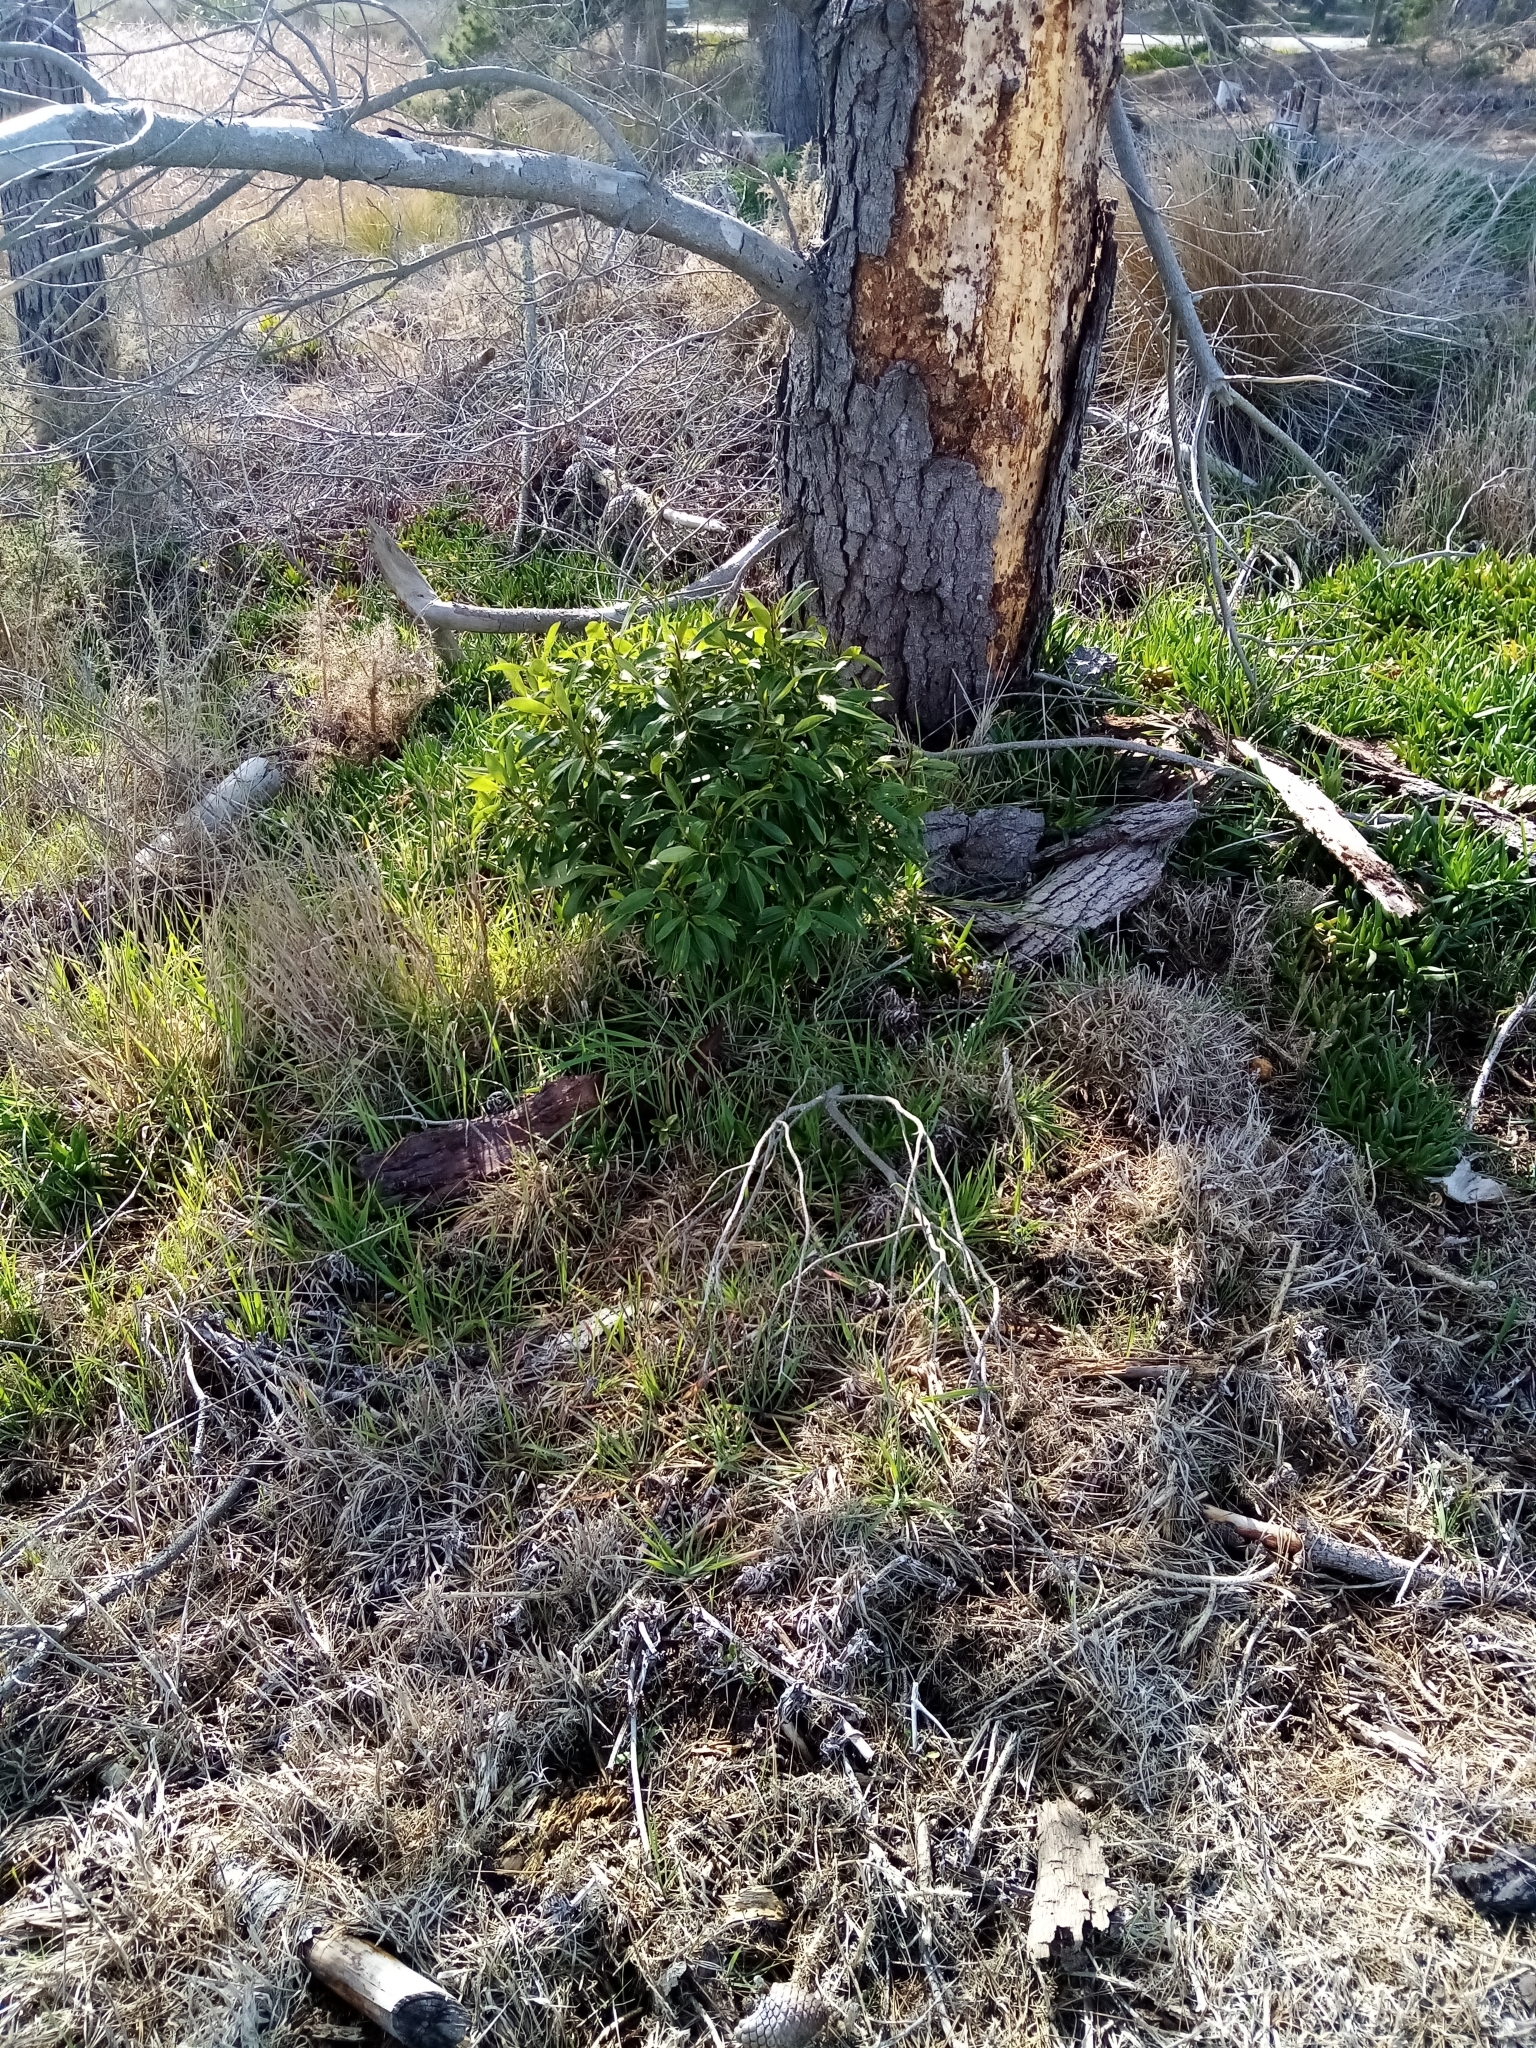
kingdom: Plantae
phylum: Tracheophyta
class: Magnoliopsida
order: Lamiales
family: Scrophulariaceae
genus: Myoporum
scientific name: Myoporum laetum
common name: Ngaio tree
